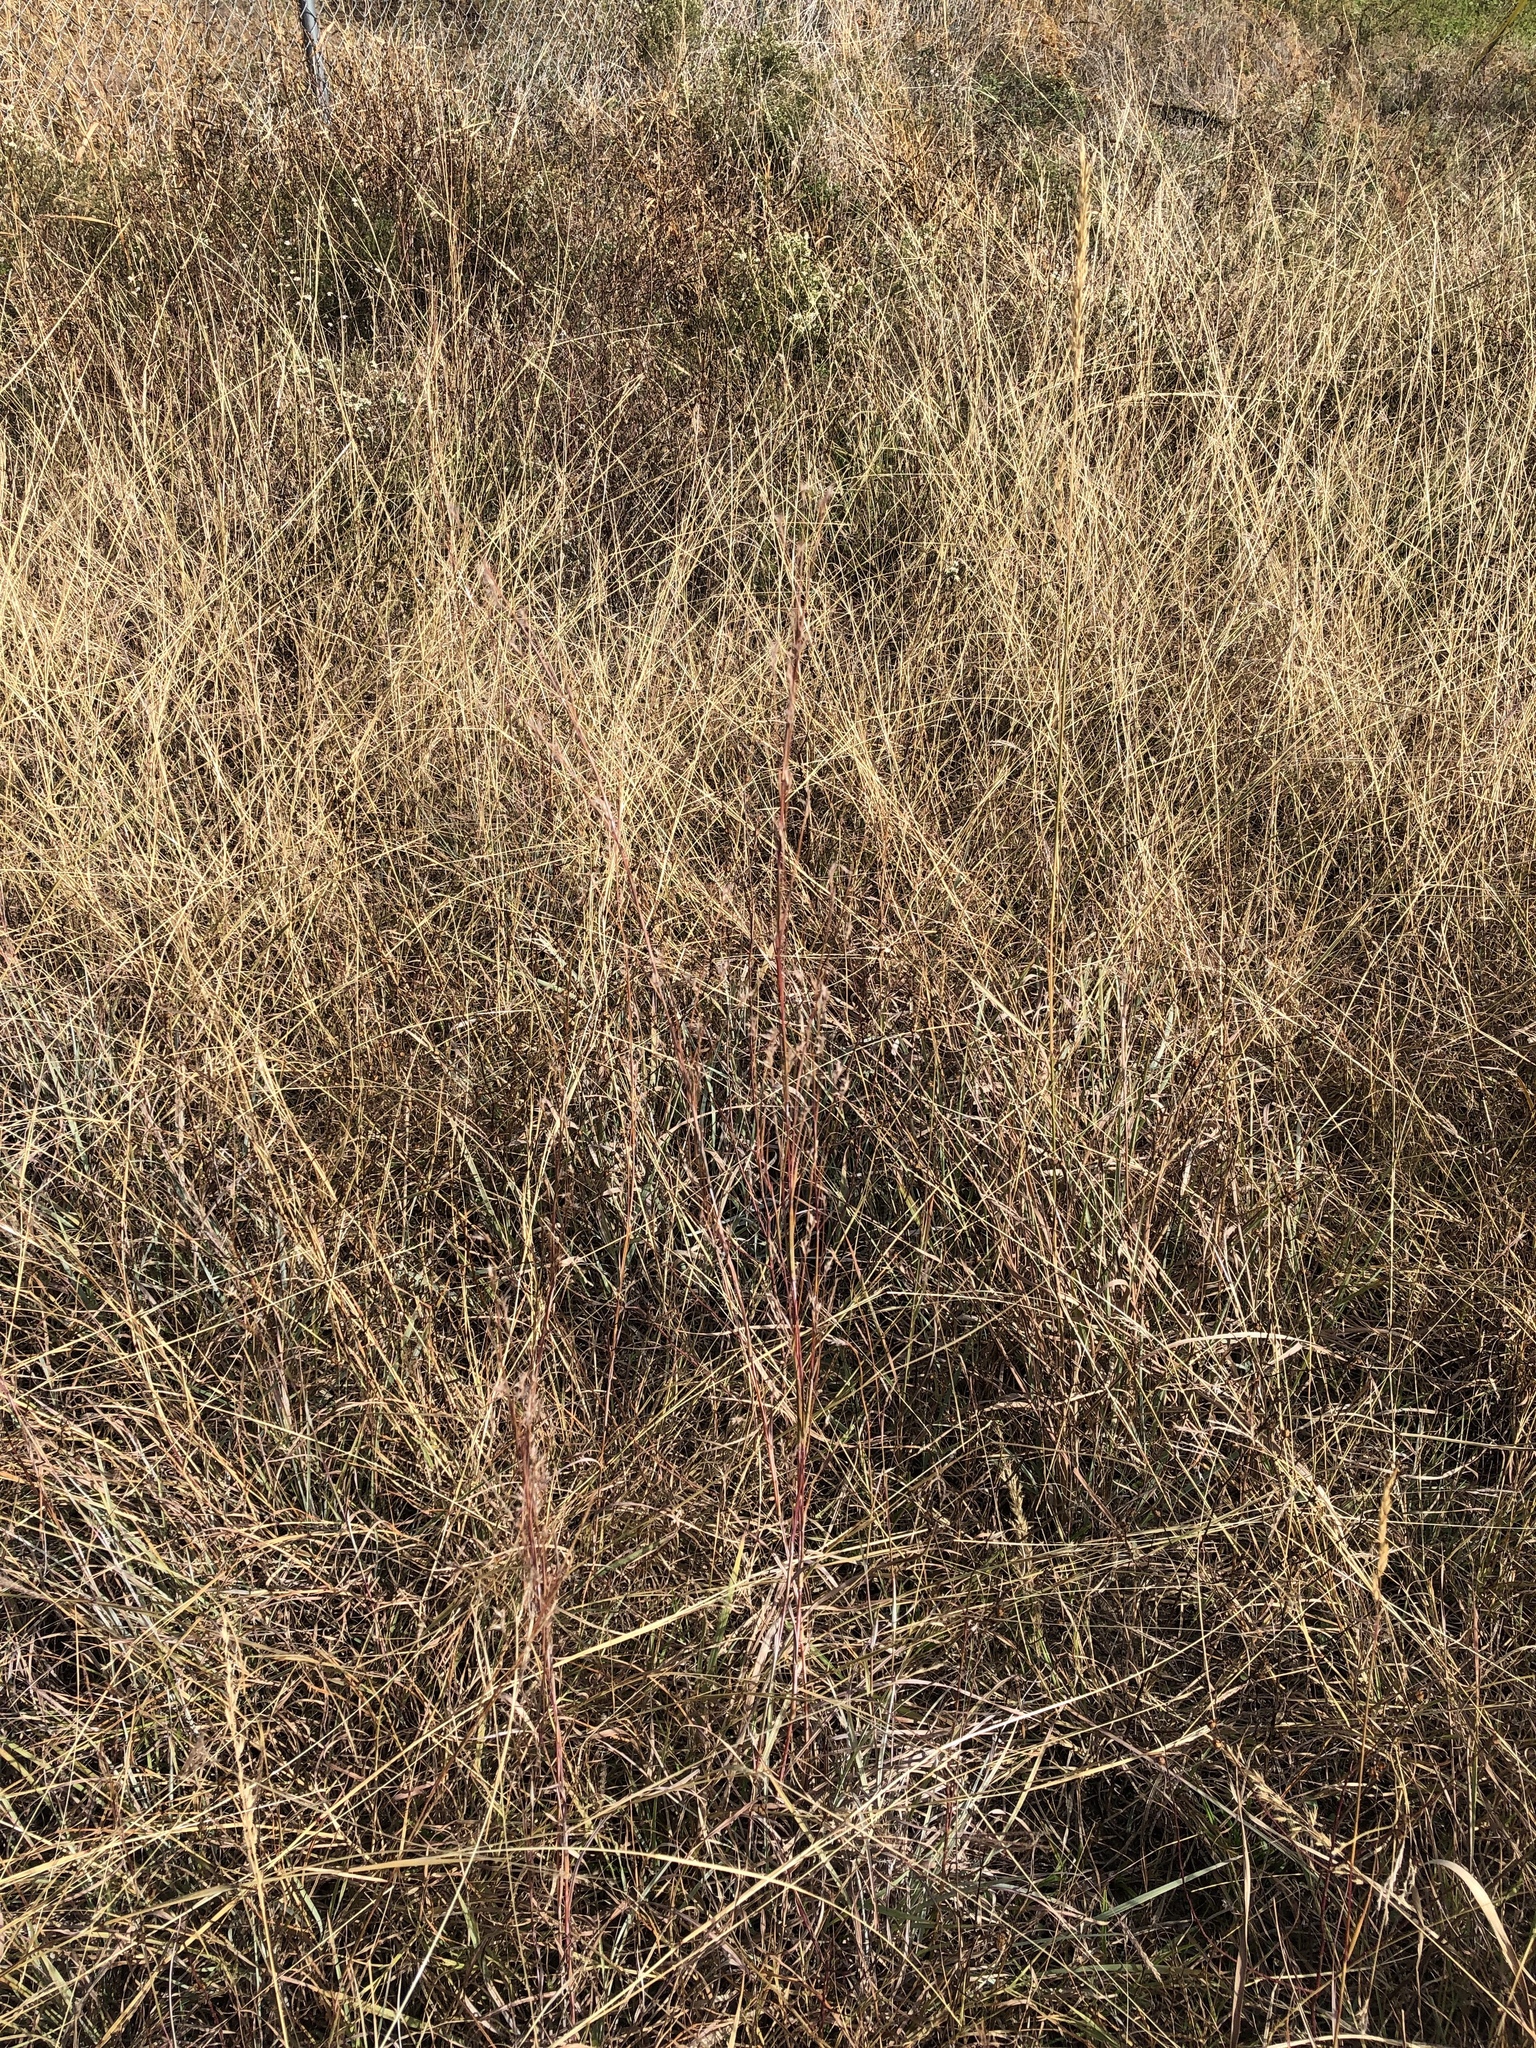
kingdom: Plantae
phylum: Tracheophyta
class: Liliopsida
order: Poales
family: Poaceae
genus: Schizachyrium
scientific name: Schizachyrium scoparium
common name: Little bluestem
